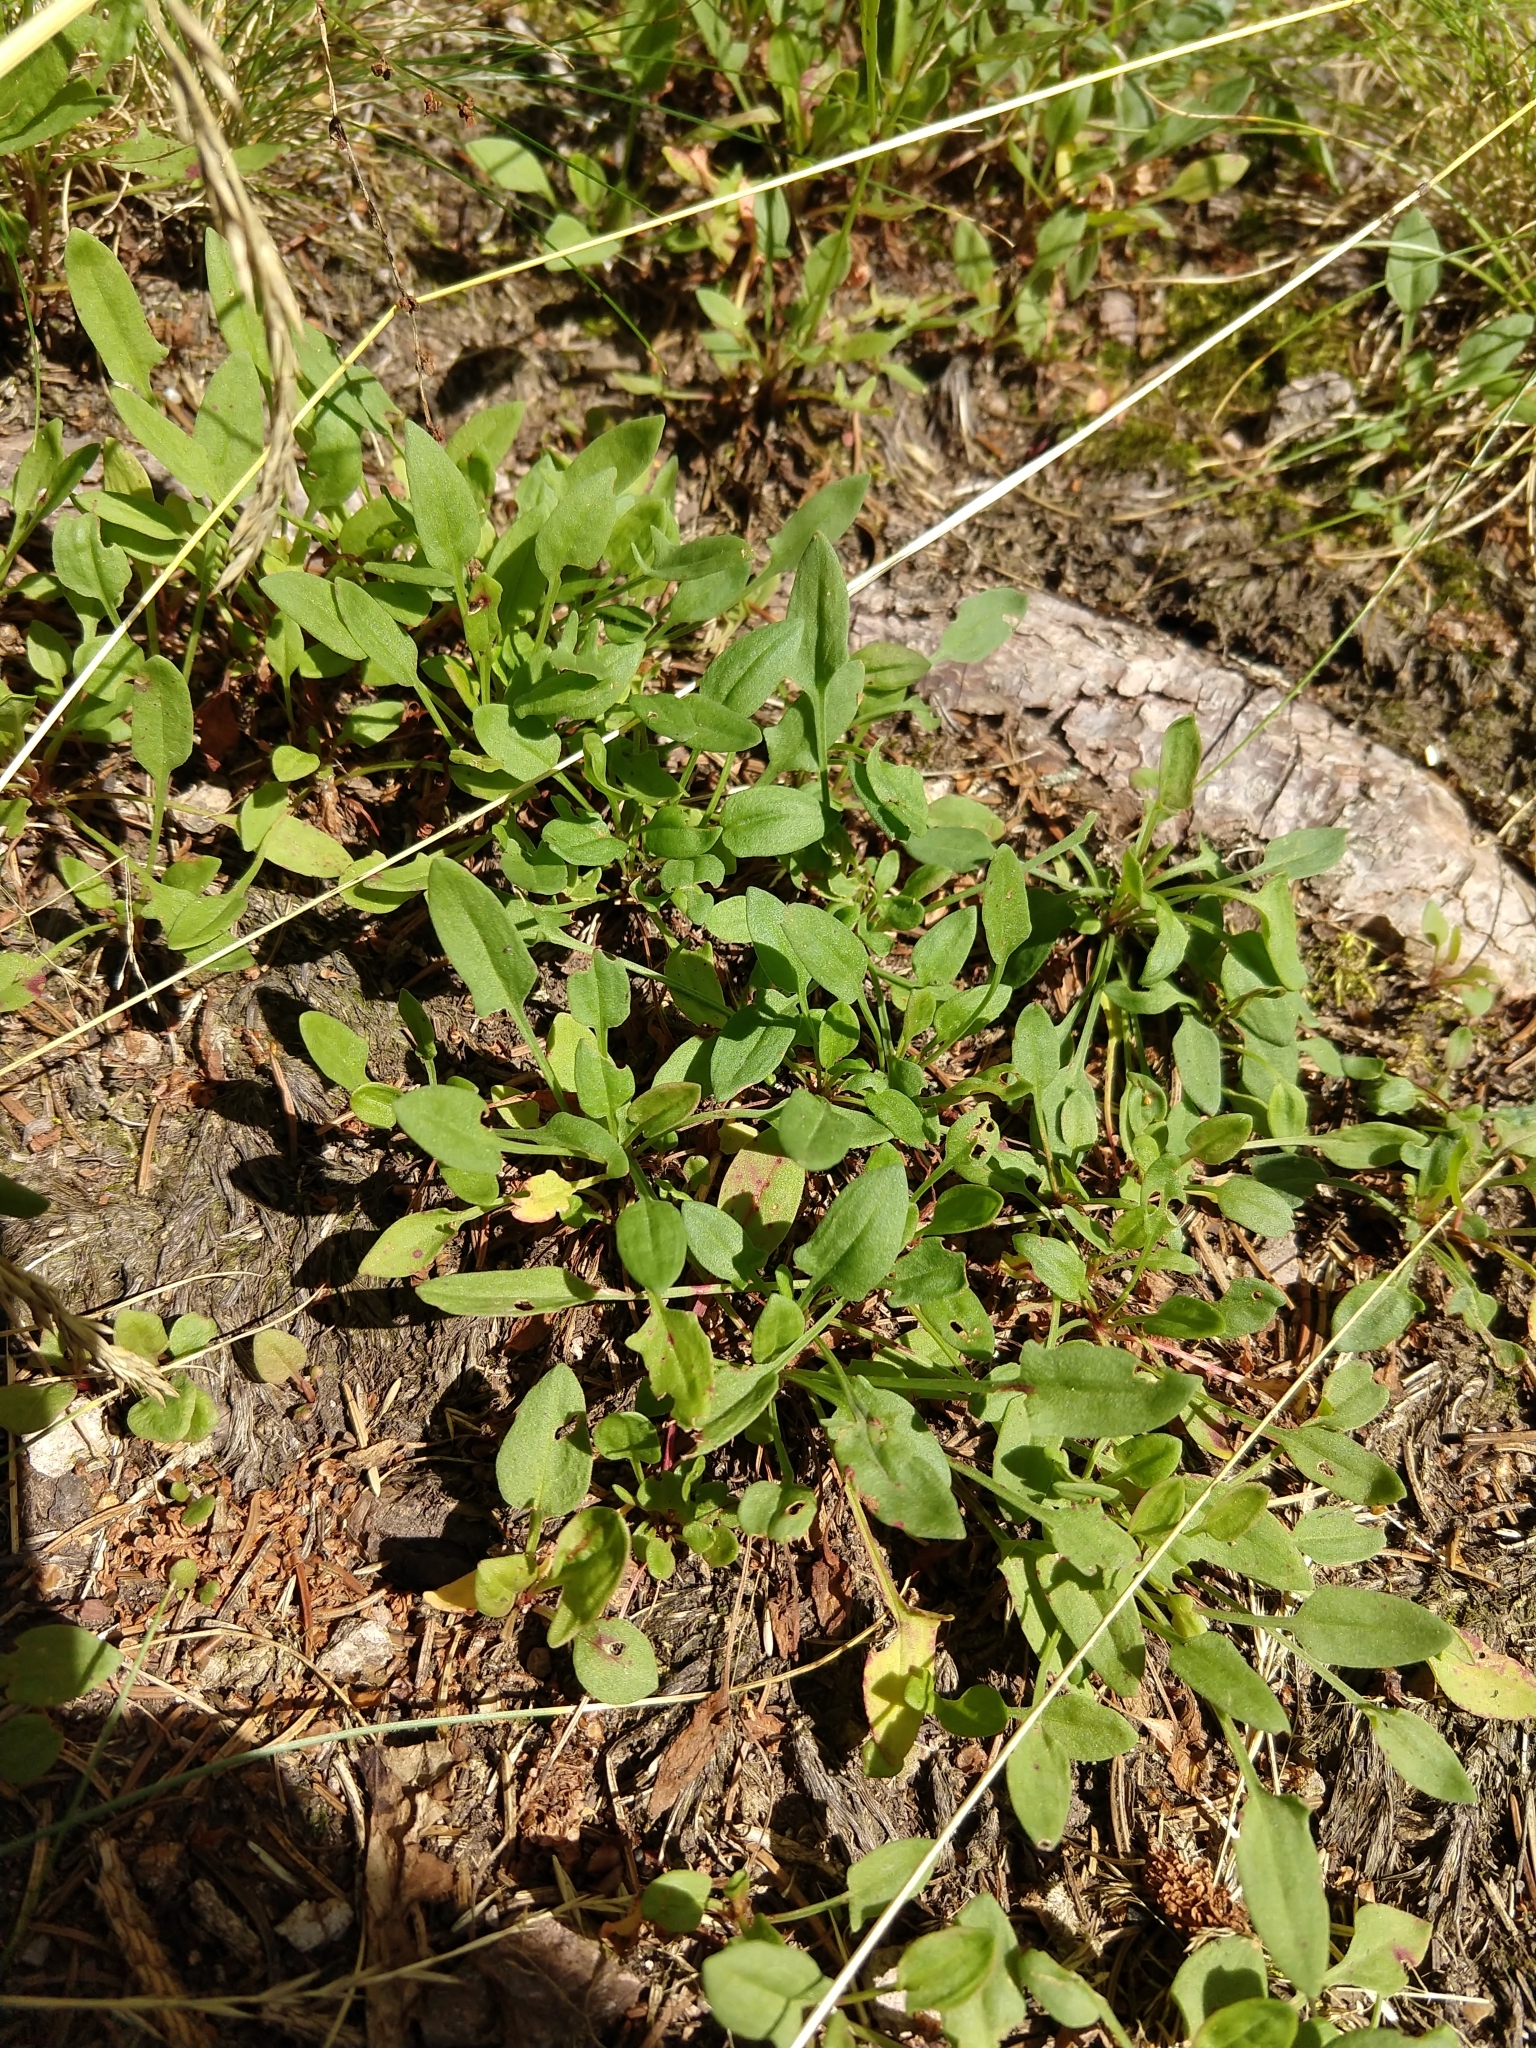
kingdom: Plantae
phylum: Tracheophyta
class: Magnoliopsida
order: Caryophyllales
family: Polygonaceae
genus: Rumex
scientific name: Rumex acetosella
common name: Common sheep sorrel
